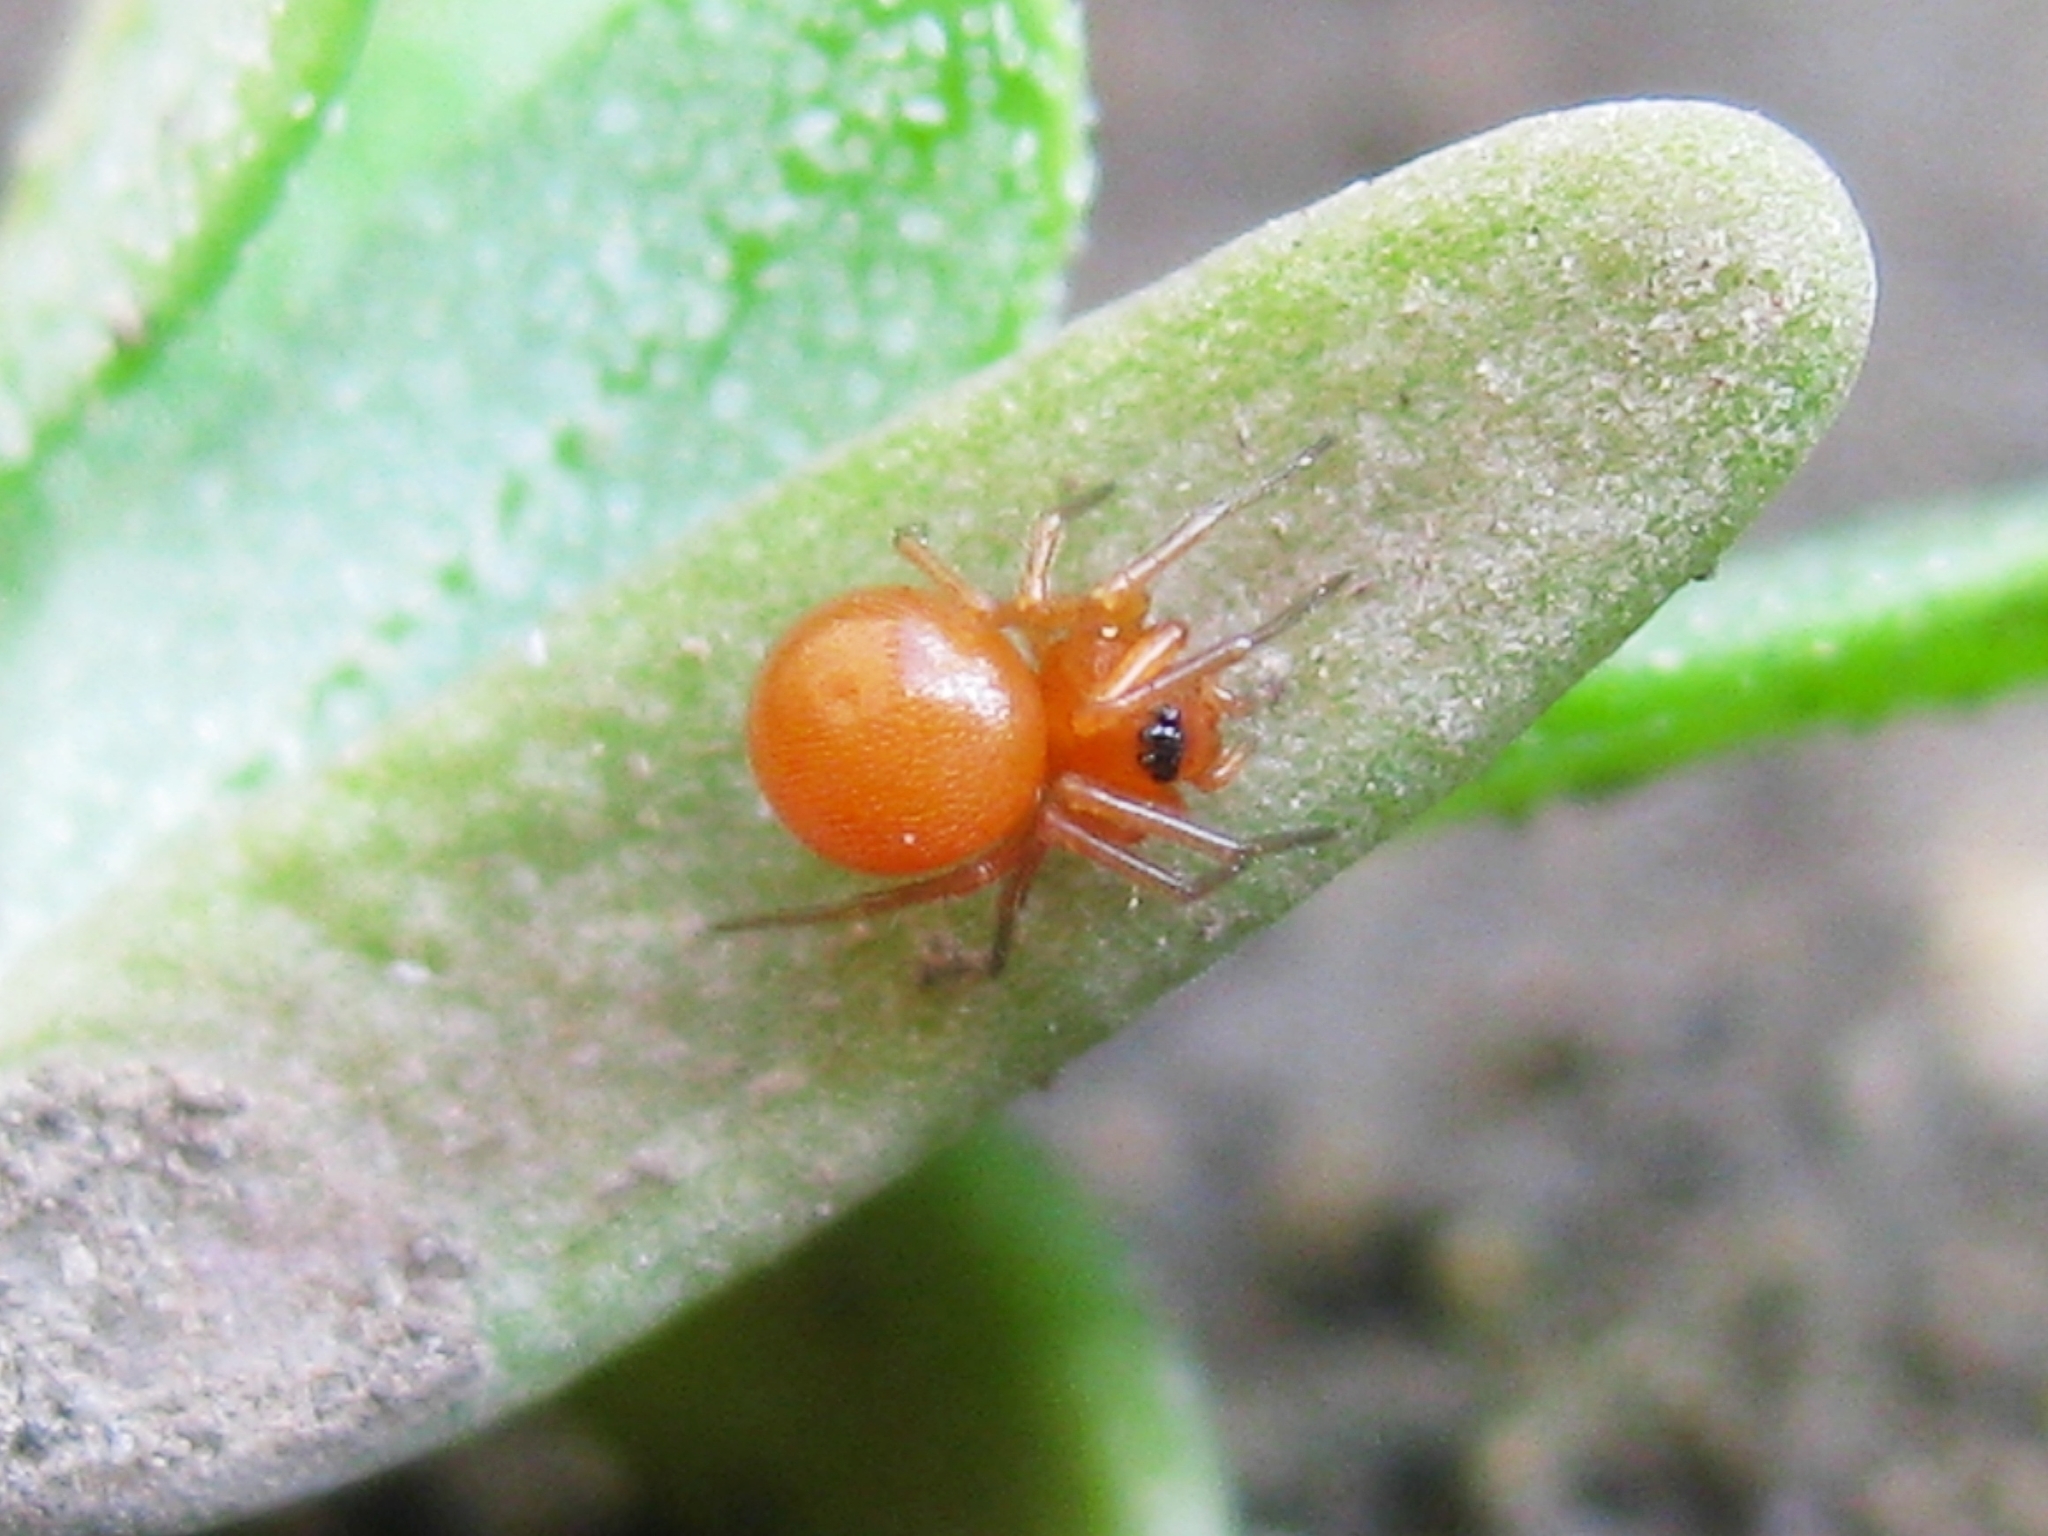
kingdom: Animalia
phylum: Arthropoda
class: Arachnida
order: Araneae
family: Linyphiidae
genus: Nematogmus
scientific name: Nematogmus sanguinolentus
